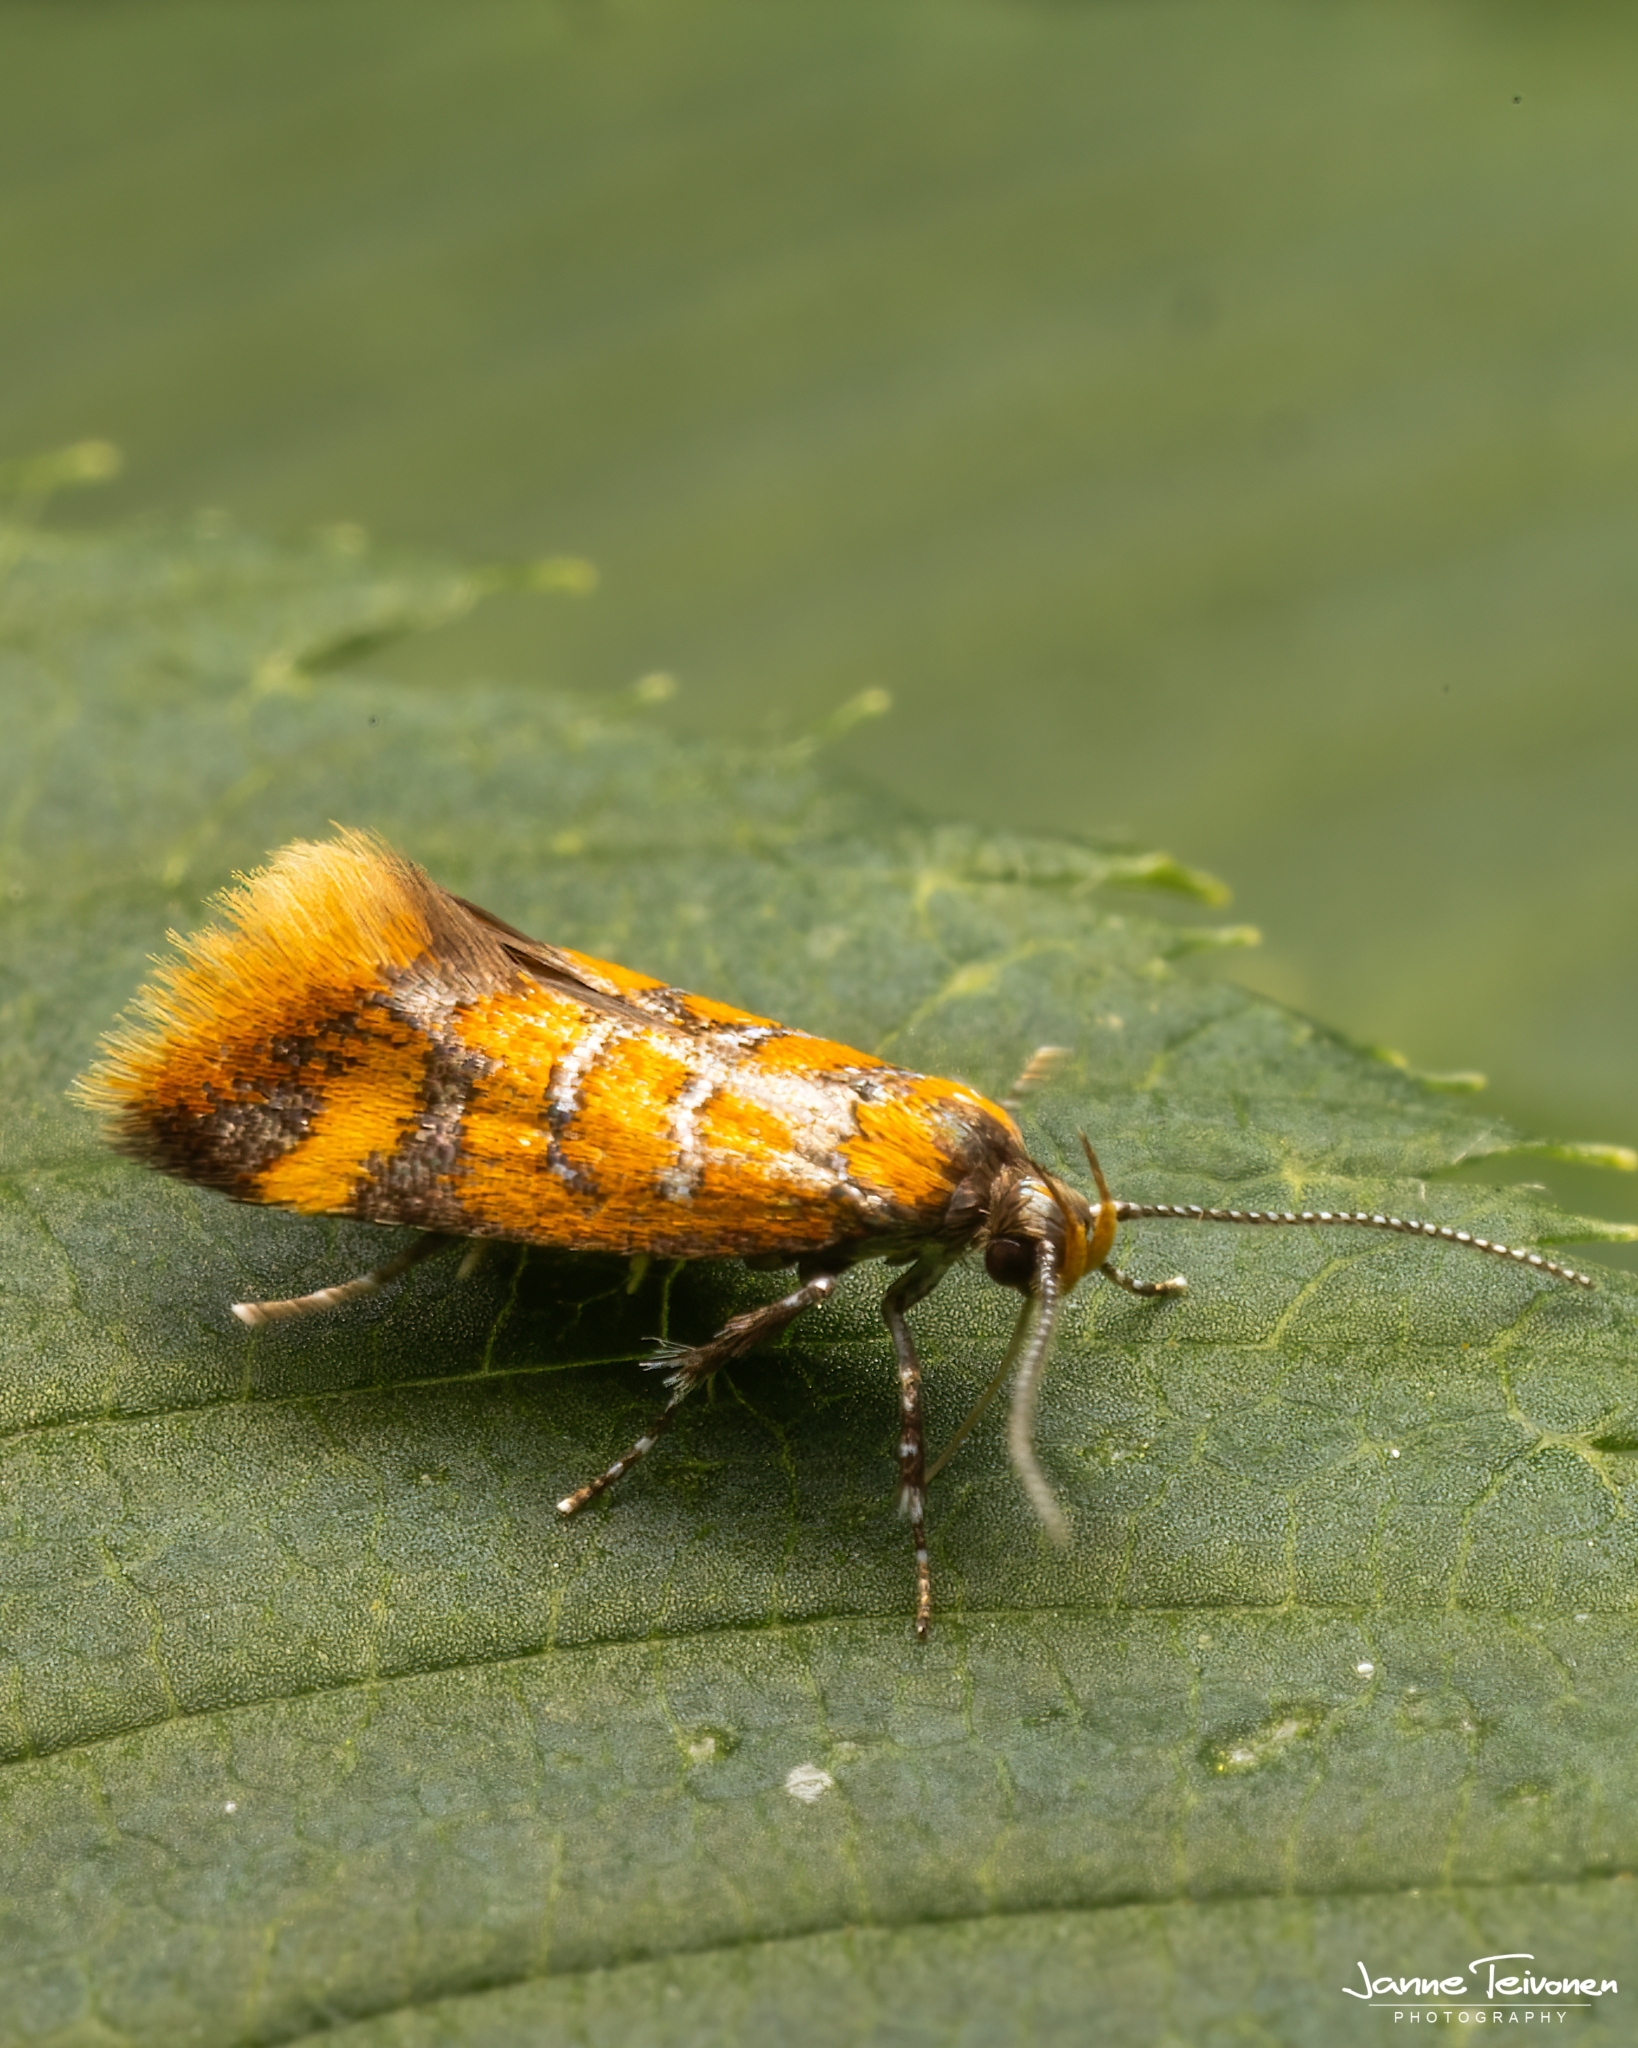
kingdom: Animalia
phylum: Arthropoda
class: Insecta
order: Lepidoptera
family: Oecophoridae
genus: Schiffermuelleria
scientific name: Schiffermuelleria procerella
